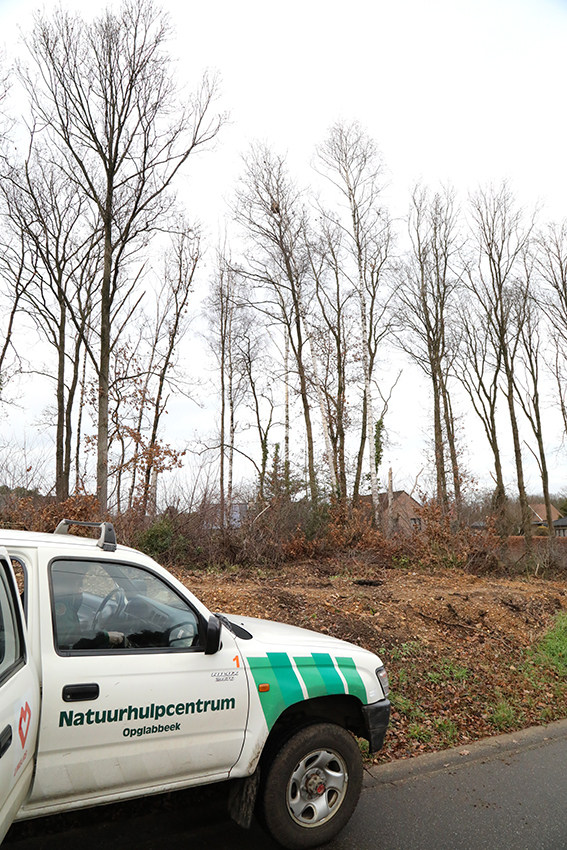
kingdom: Animalia
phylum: Arthropoda
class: Insecta
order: Hymenoptera
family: Vespidae
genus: Vespa
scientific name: Vespa velutina
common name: Asian hornet
